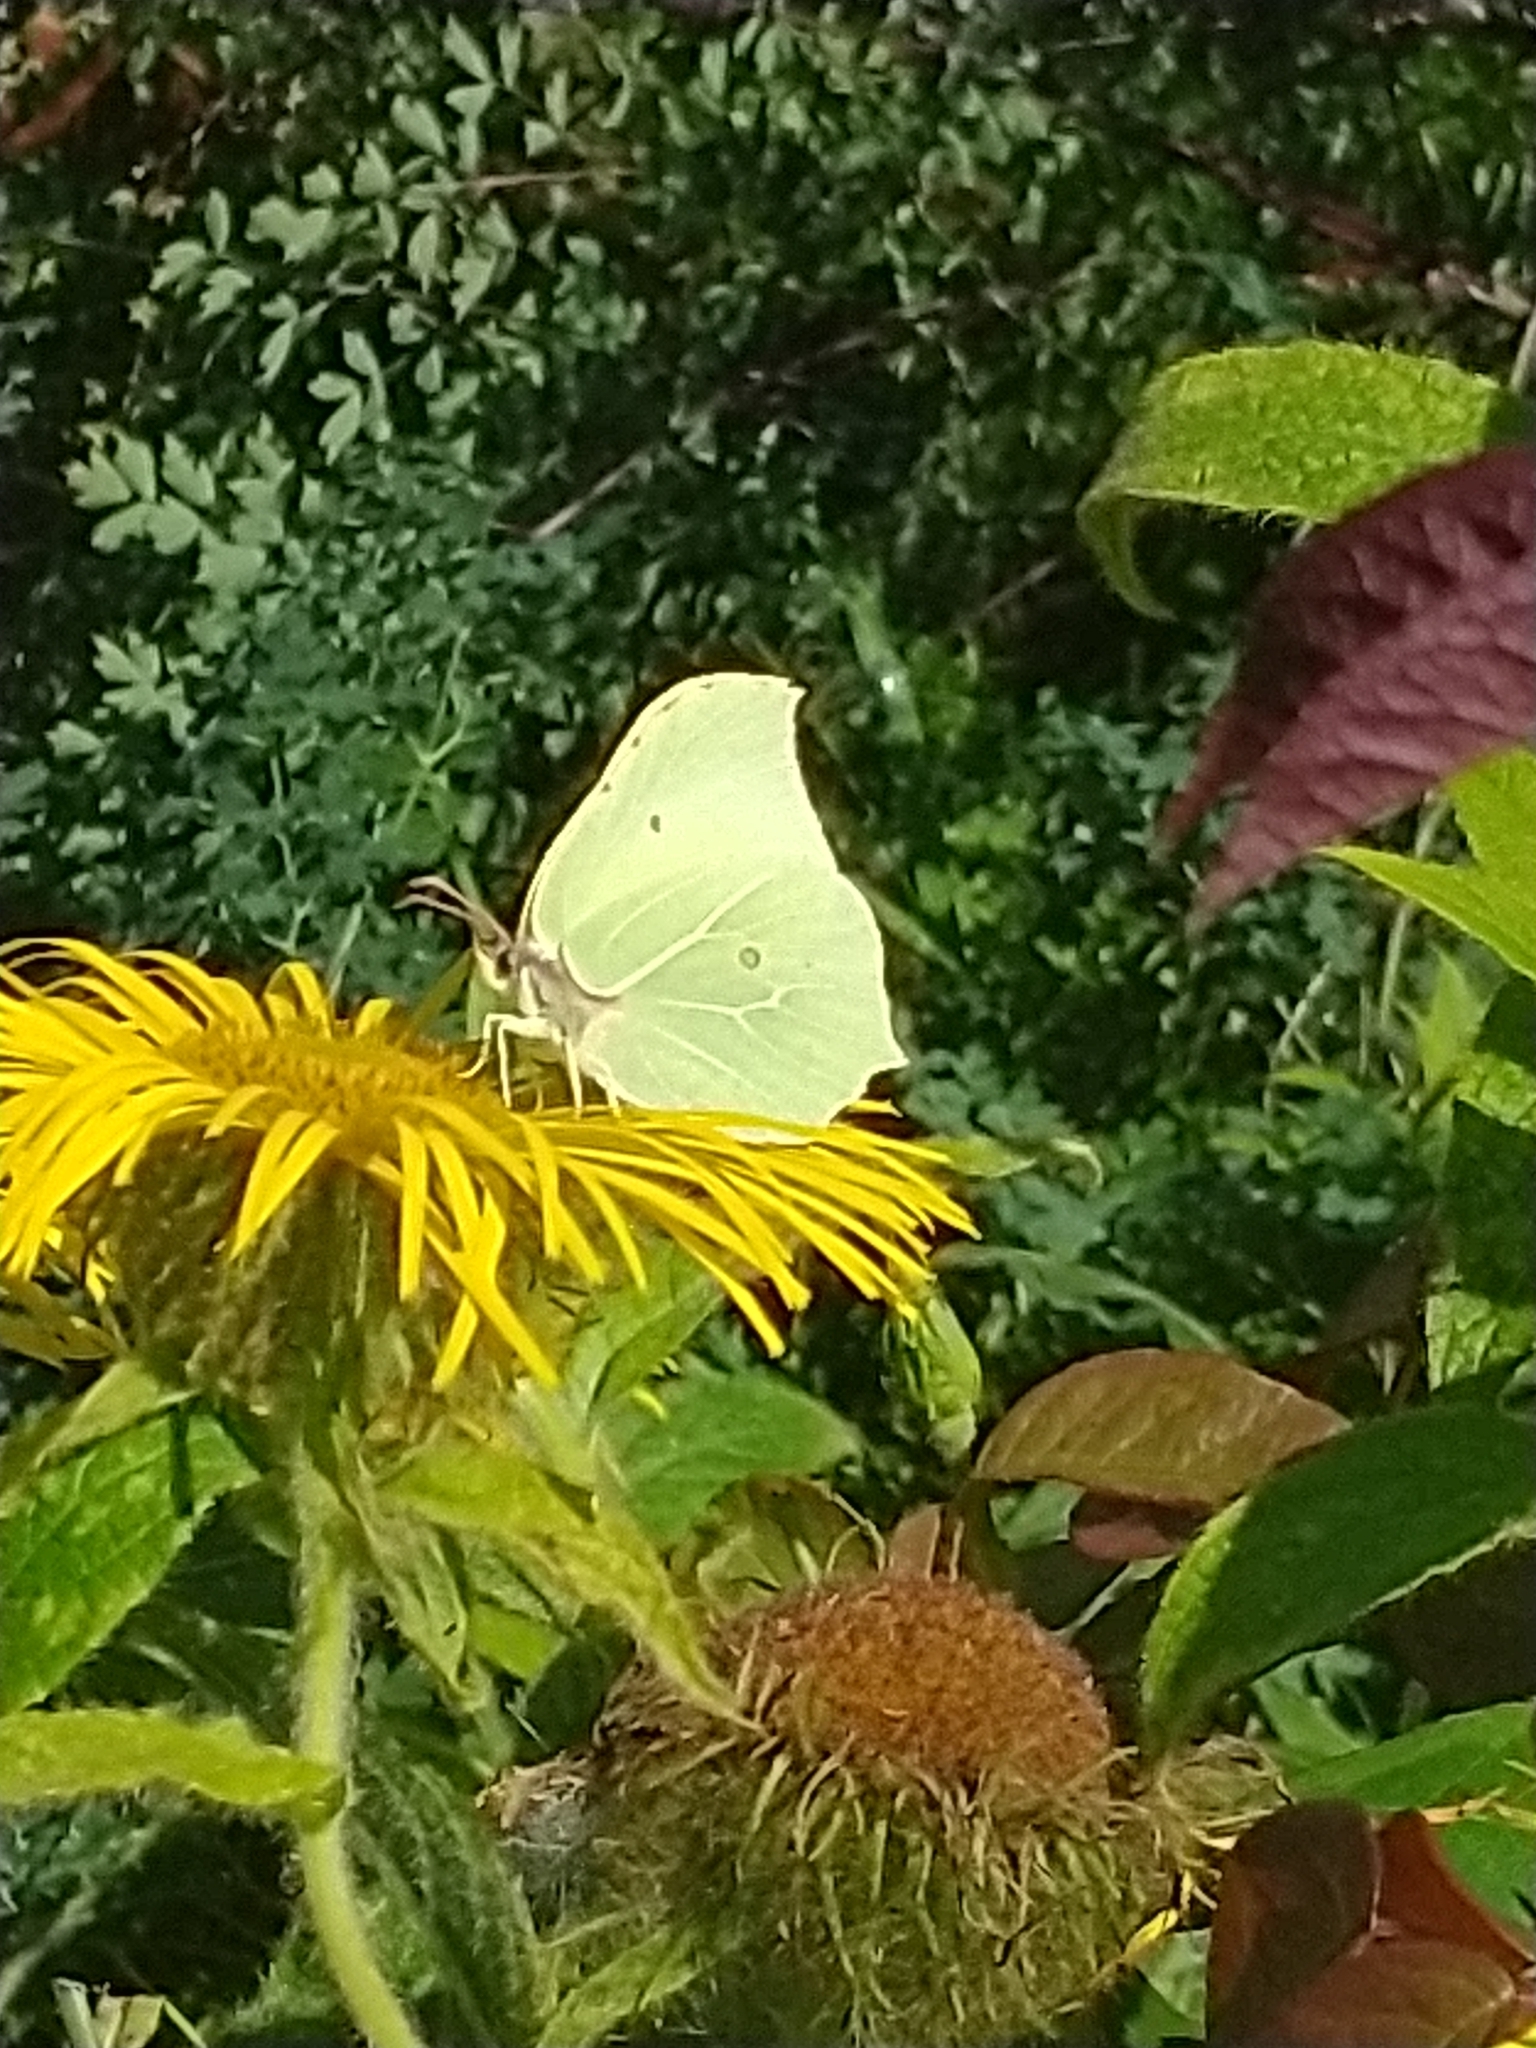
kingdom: Animalia
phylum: Arthropoda
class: Insecta
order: Lepidoptera
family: Pieridae
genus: Gonepteryx
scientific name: Gonepteryx rhamni
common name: Brimstone
